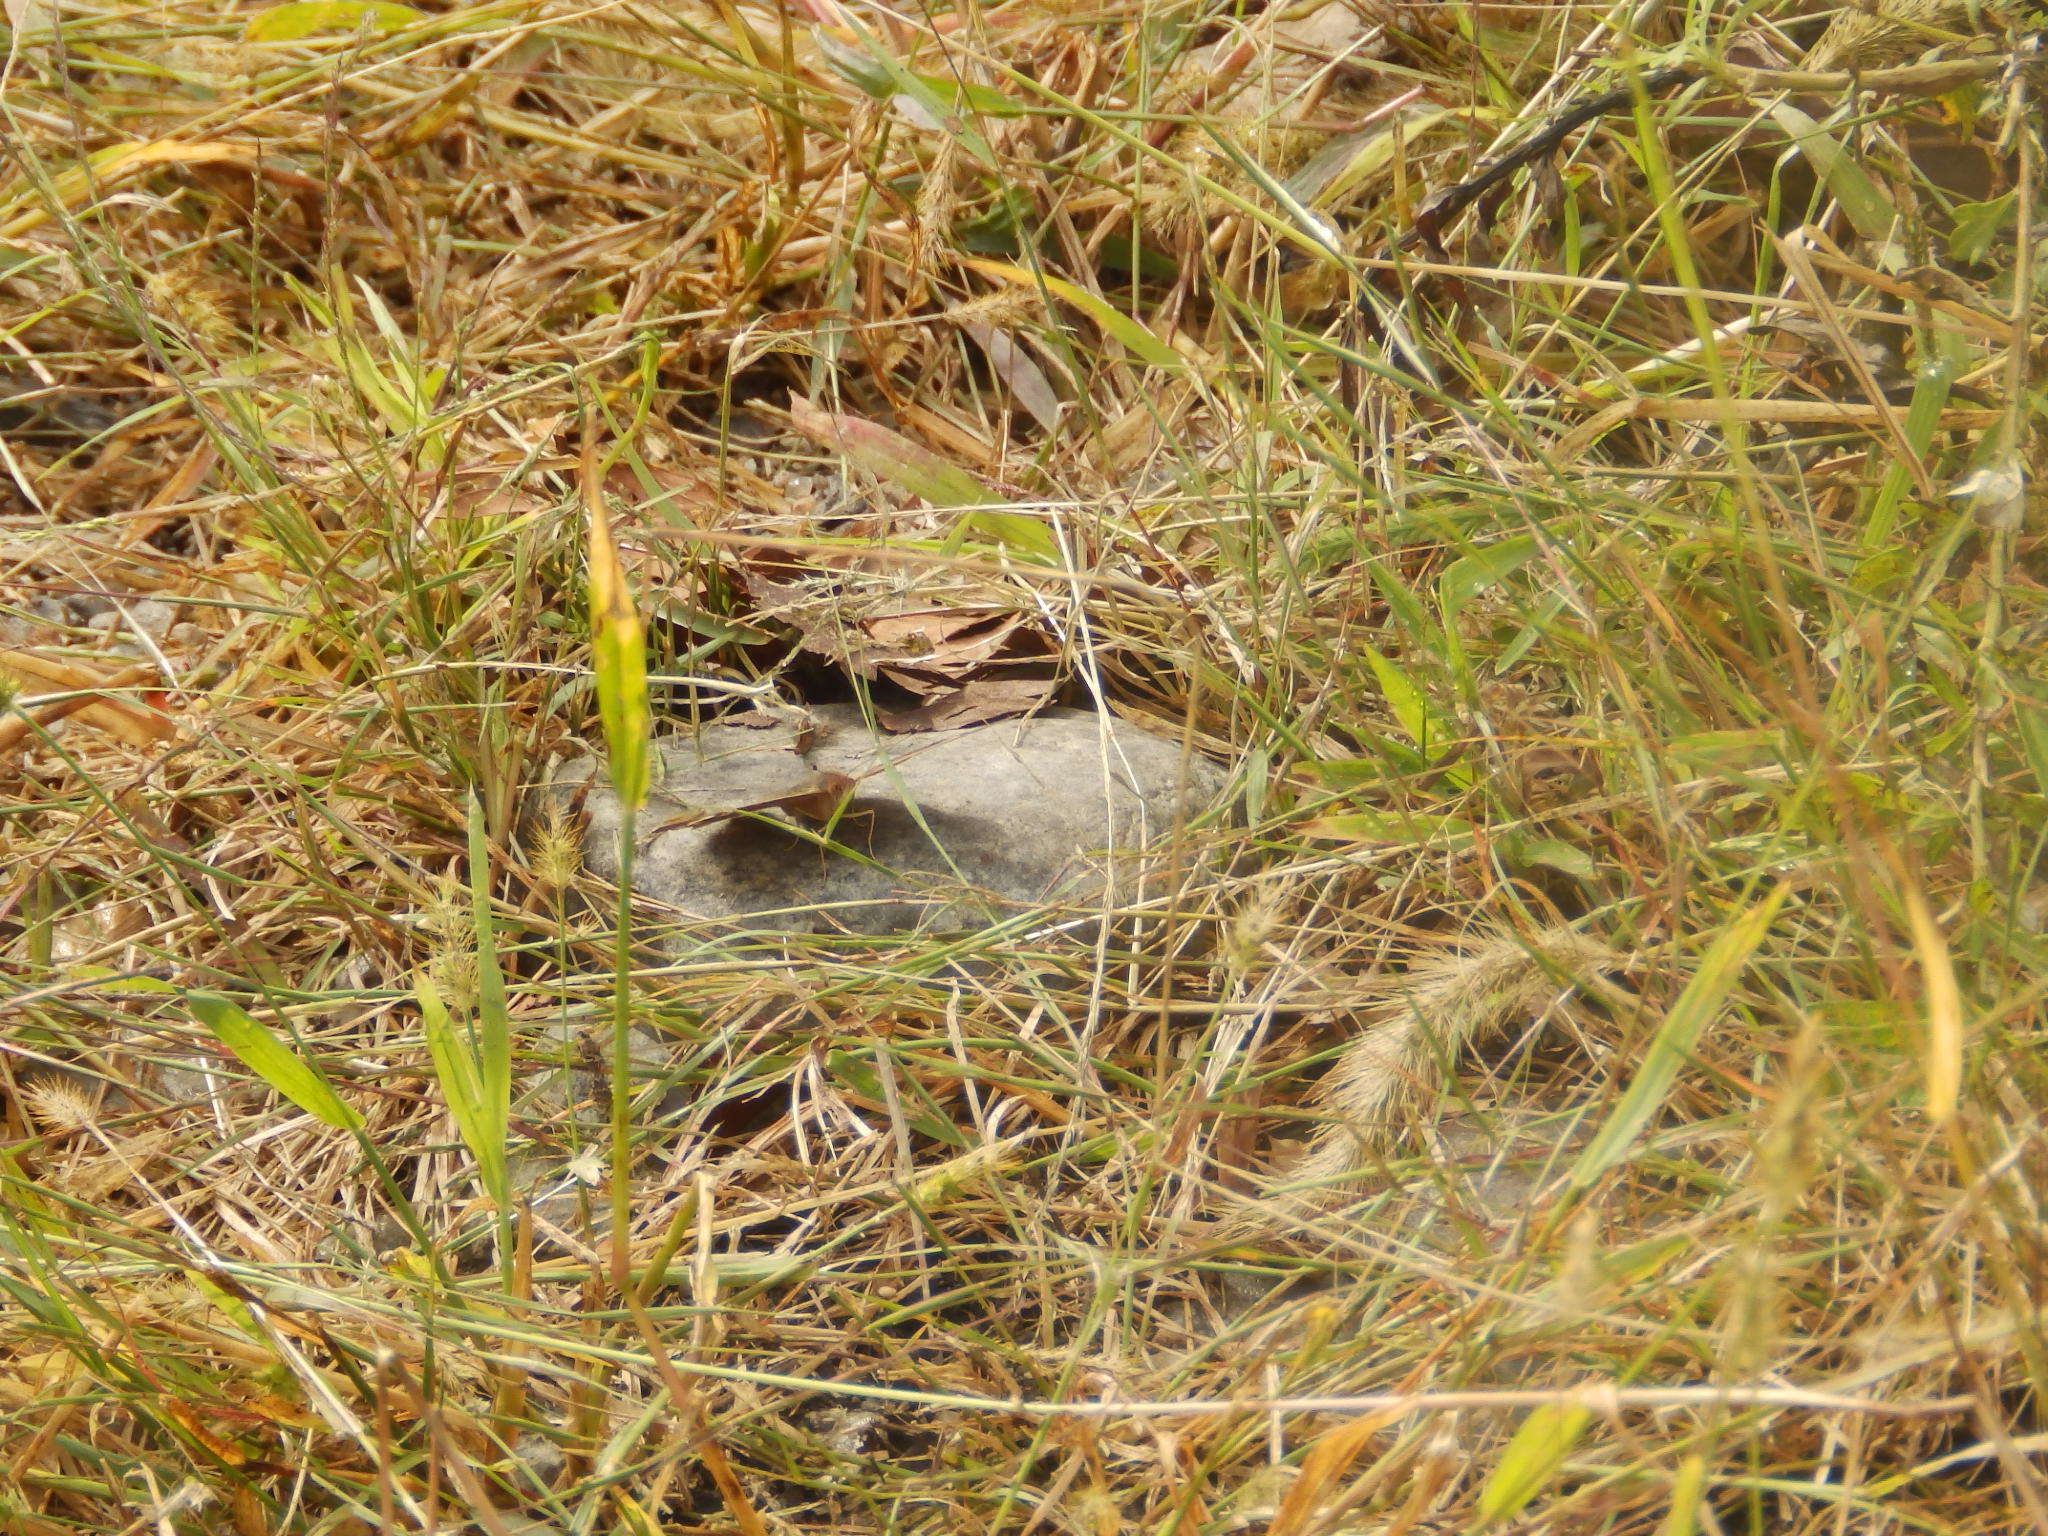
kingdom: Animalia
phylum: Arthropoda
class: Insecta
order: Lepidoptera
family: Nymphalidae
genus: Junonia
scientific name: Junonia coenia
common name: Common buckeye
